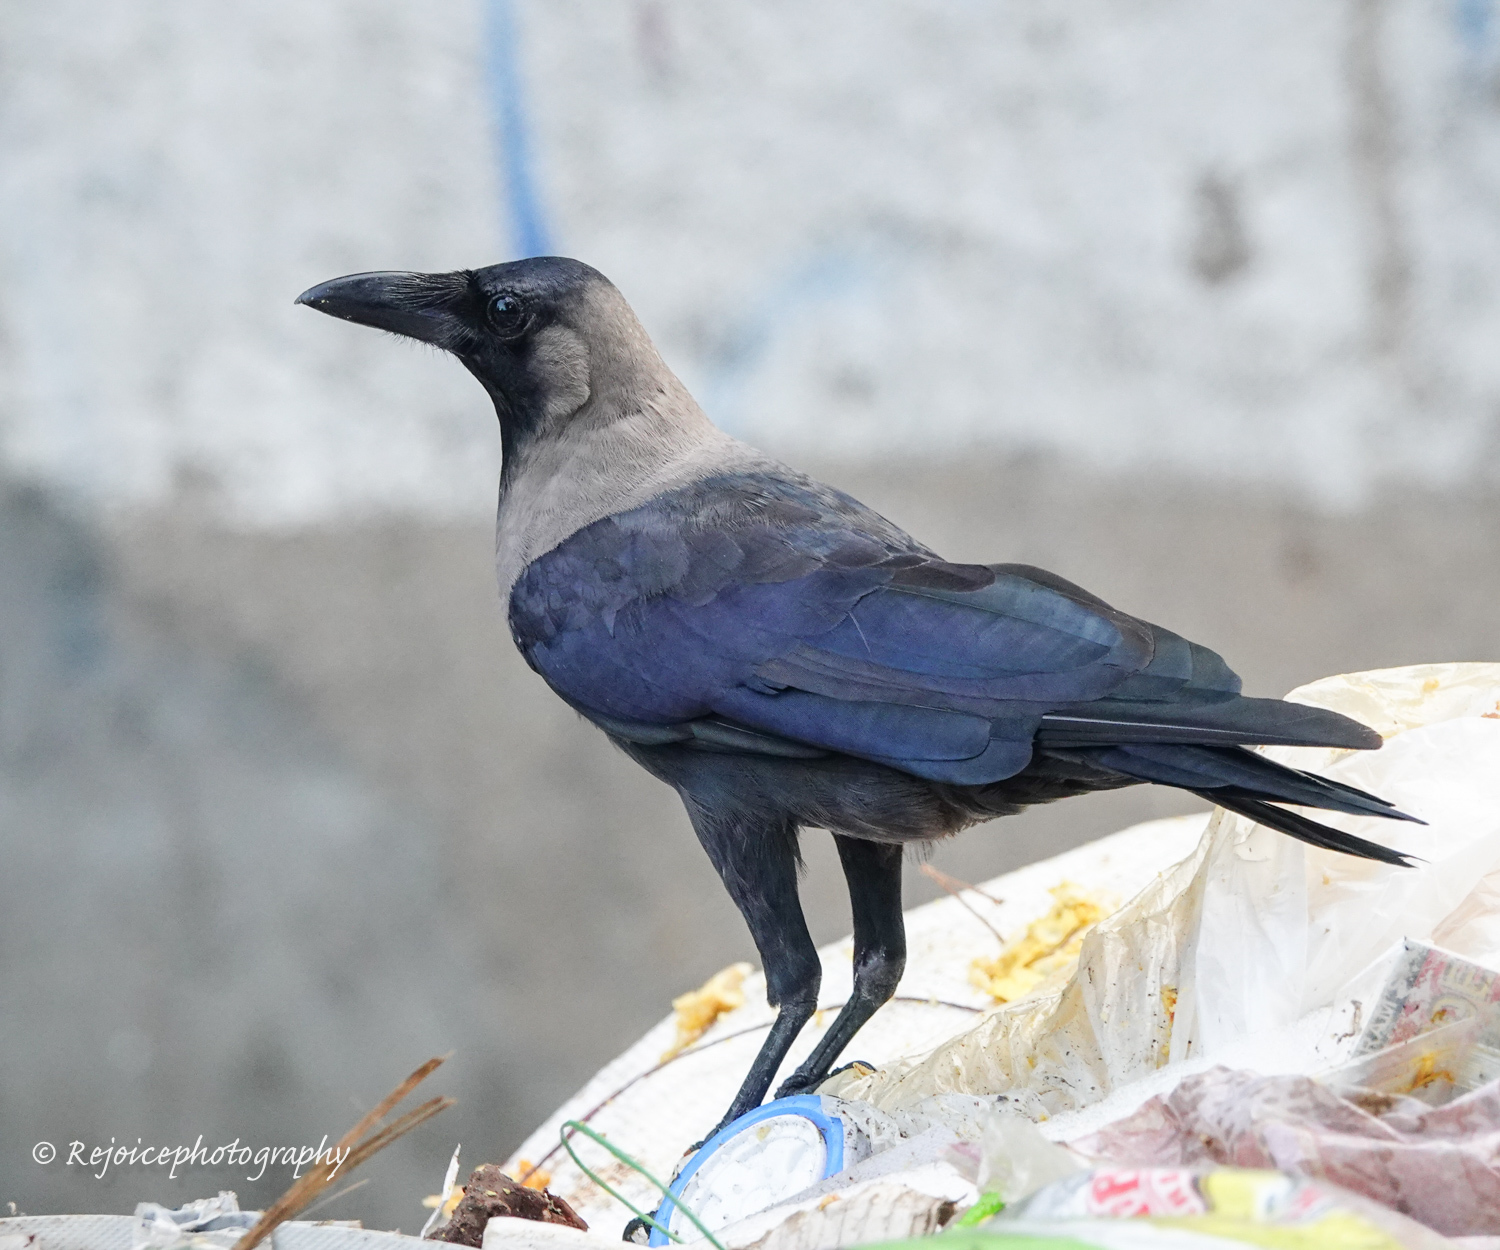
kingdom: Animalia
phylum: Chordata
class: Aves
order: Passeriformes
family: Corvidae
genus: Corvus
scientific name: Corvus splendens
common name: House crow
